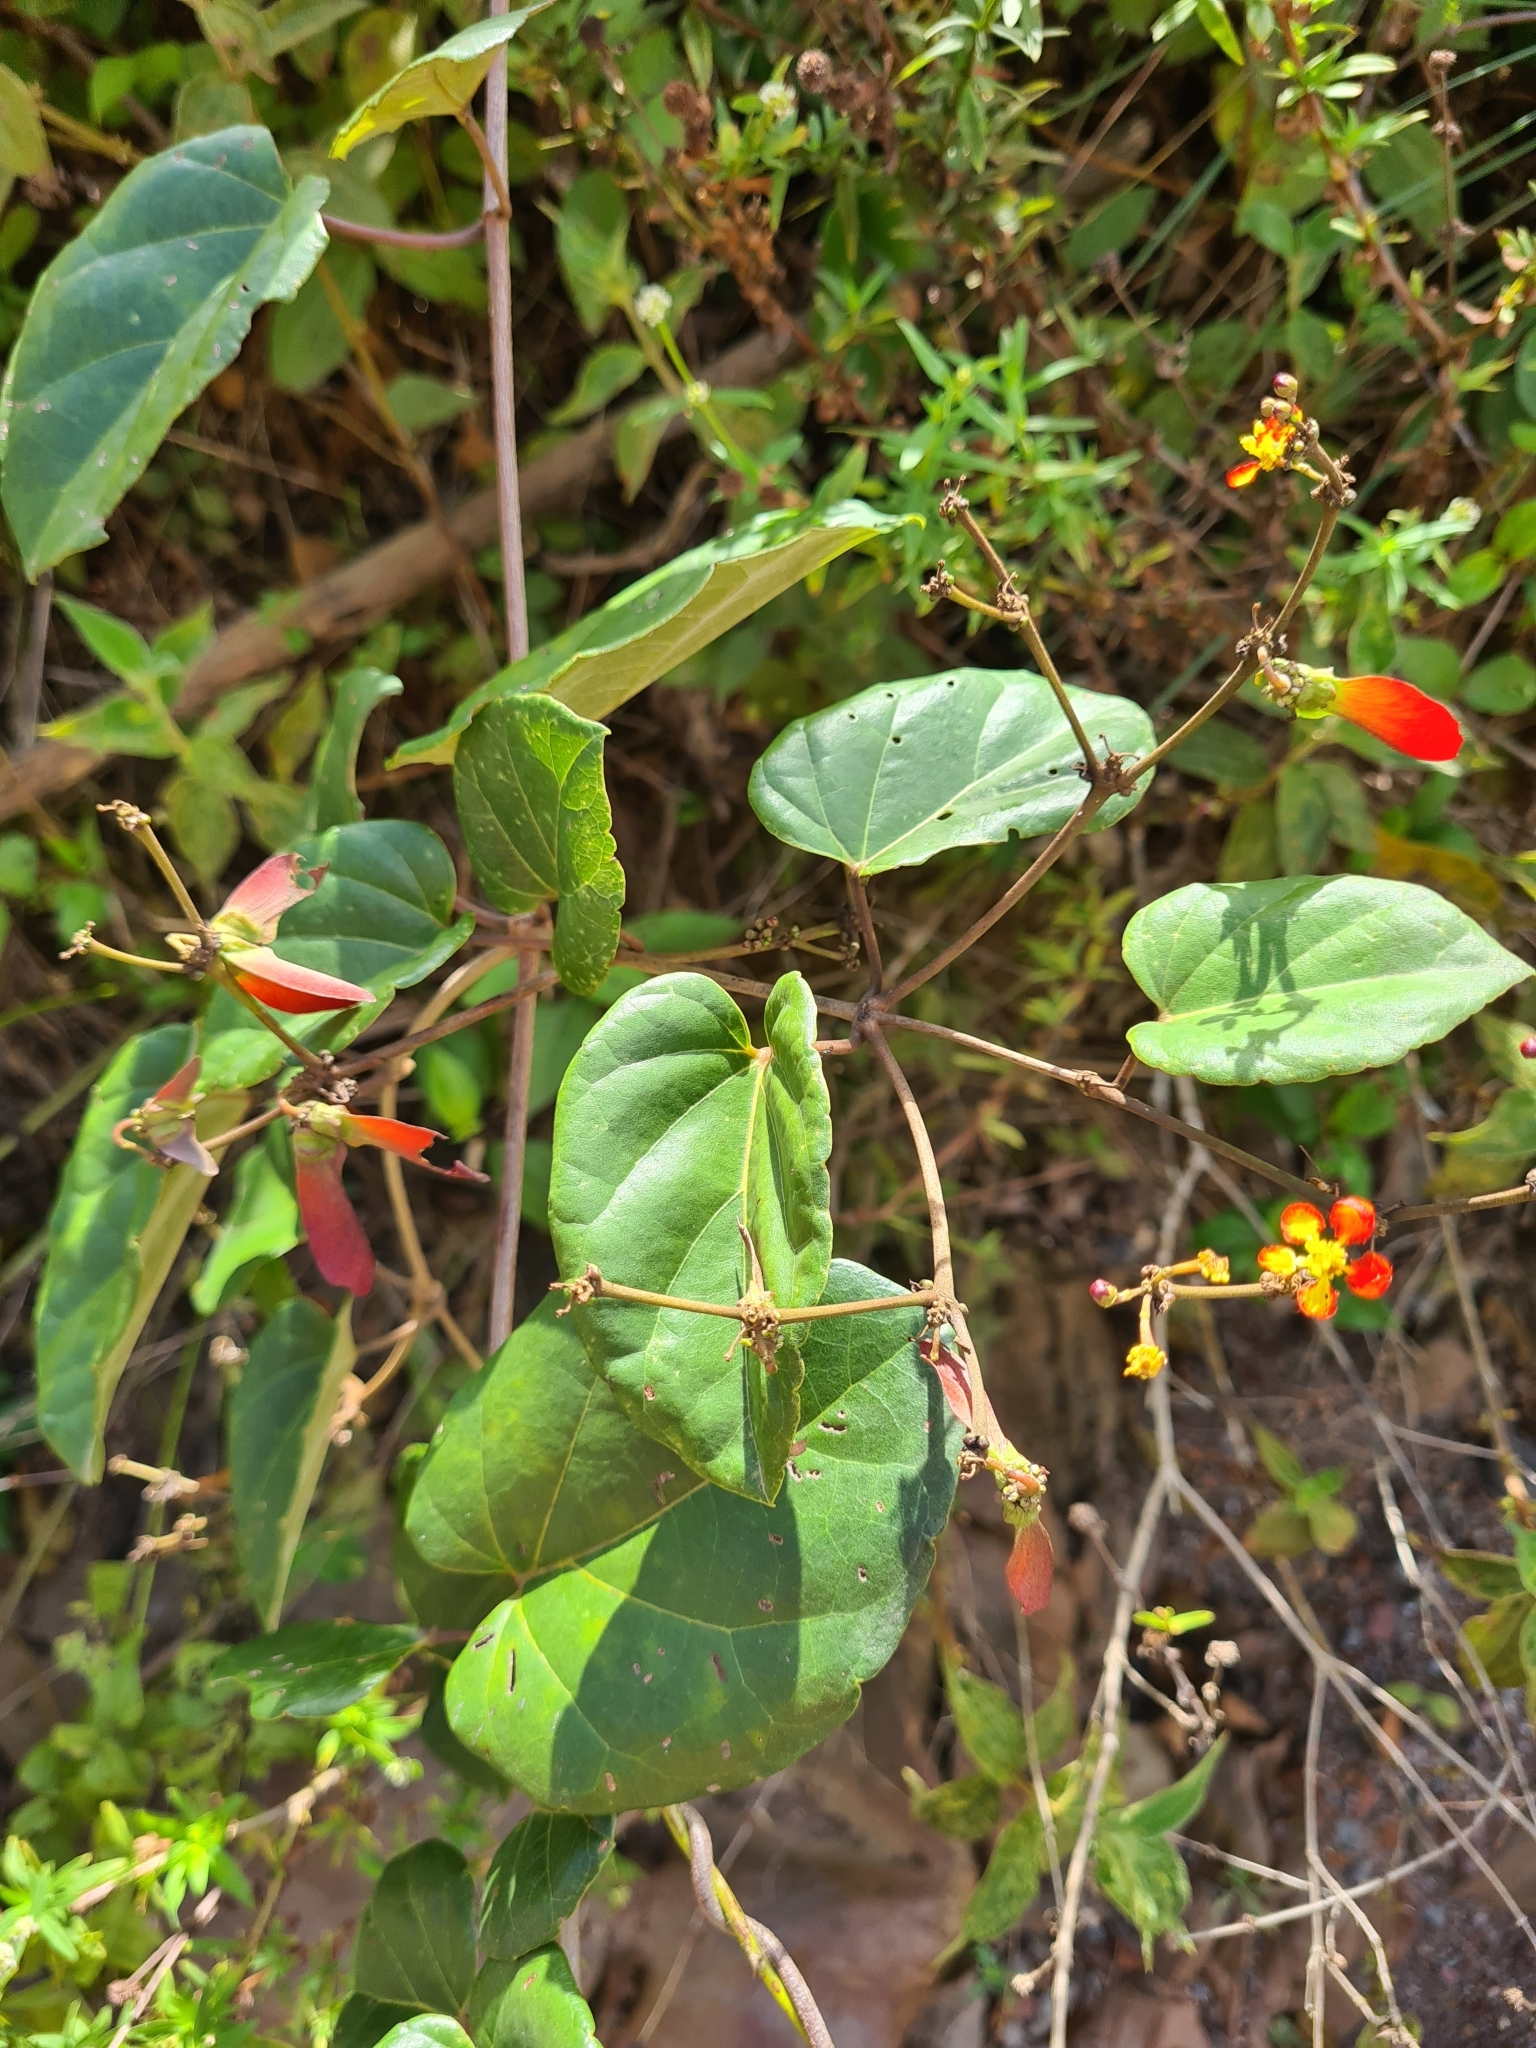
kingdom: Plantae
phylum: Tracheophyta
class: Magnoliopsida
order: Malpighiales
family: Malpighiaceae
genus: Stigmaphyllon
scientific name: Stigmaphyllon sinuatum
